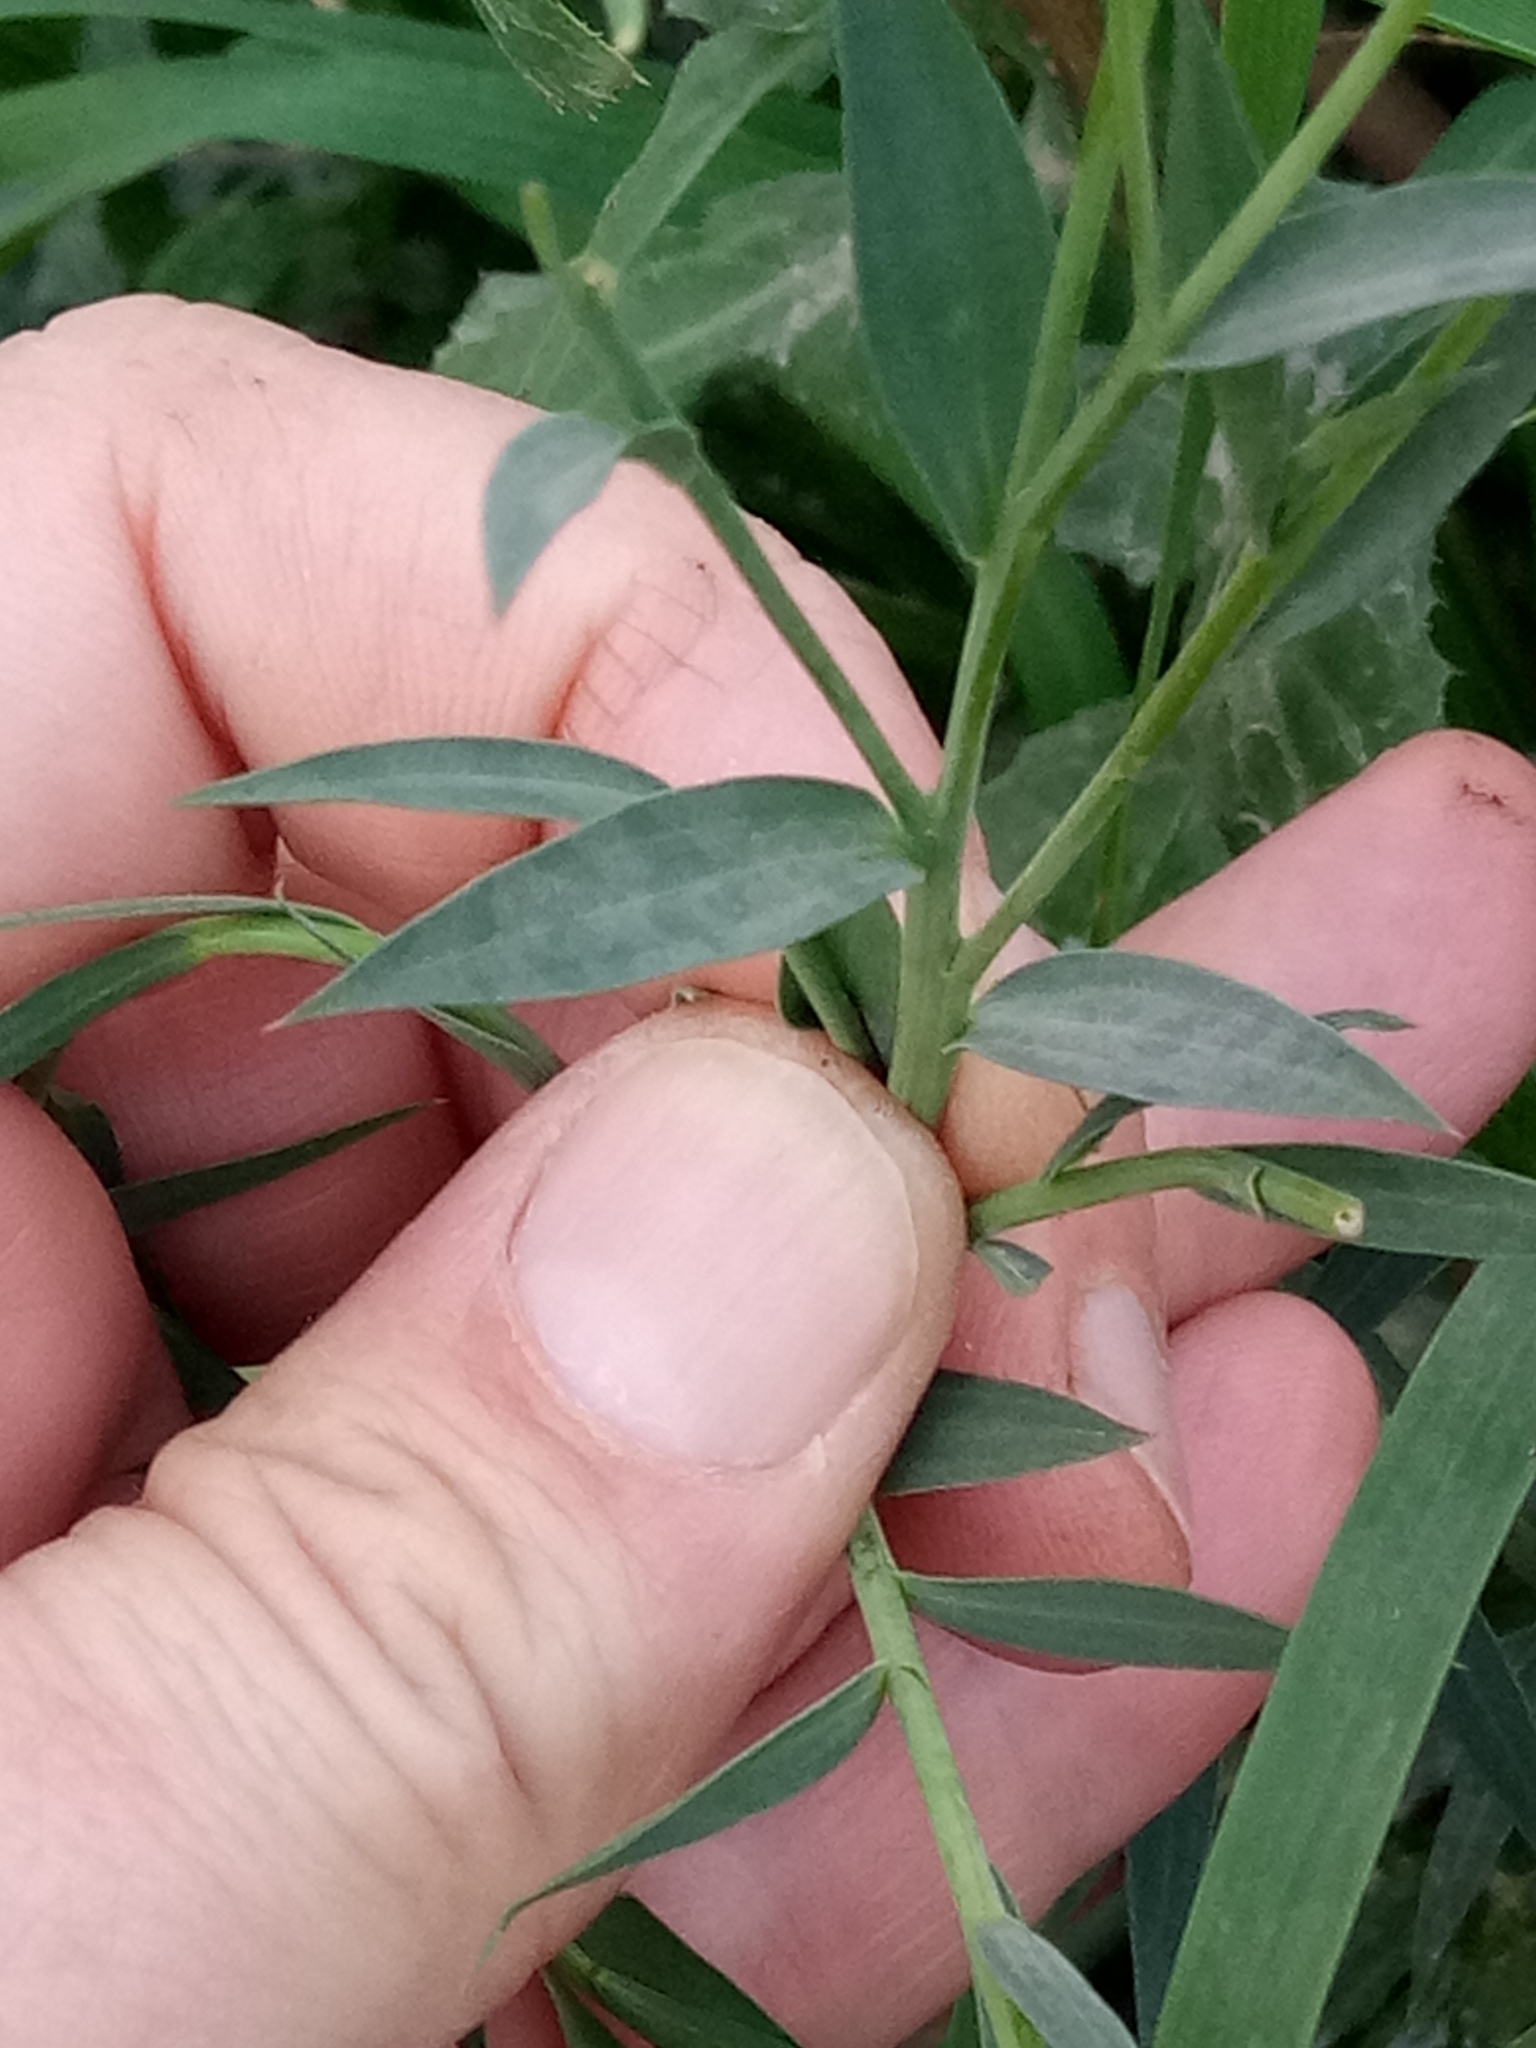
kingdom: Plantae
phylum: Tracheophyta
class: Magnoliopsida
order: Malpighiales
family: Linaceae
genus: Linum
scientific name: Linum bienne
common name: Pale flax
